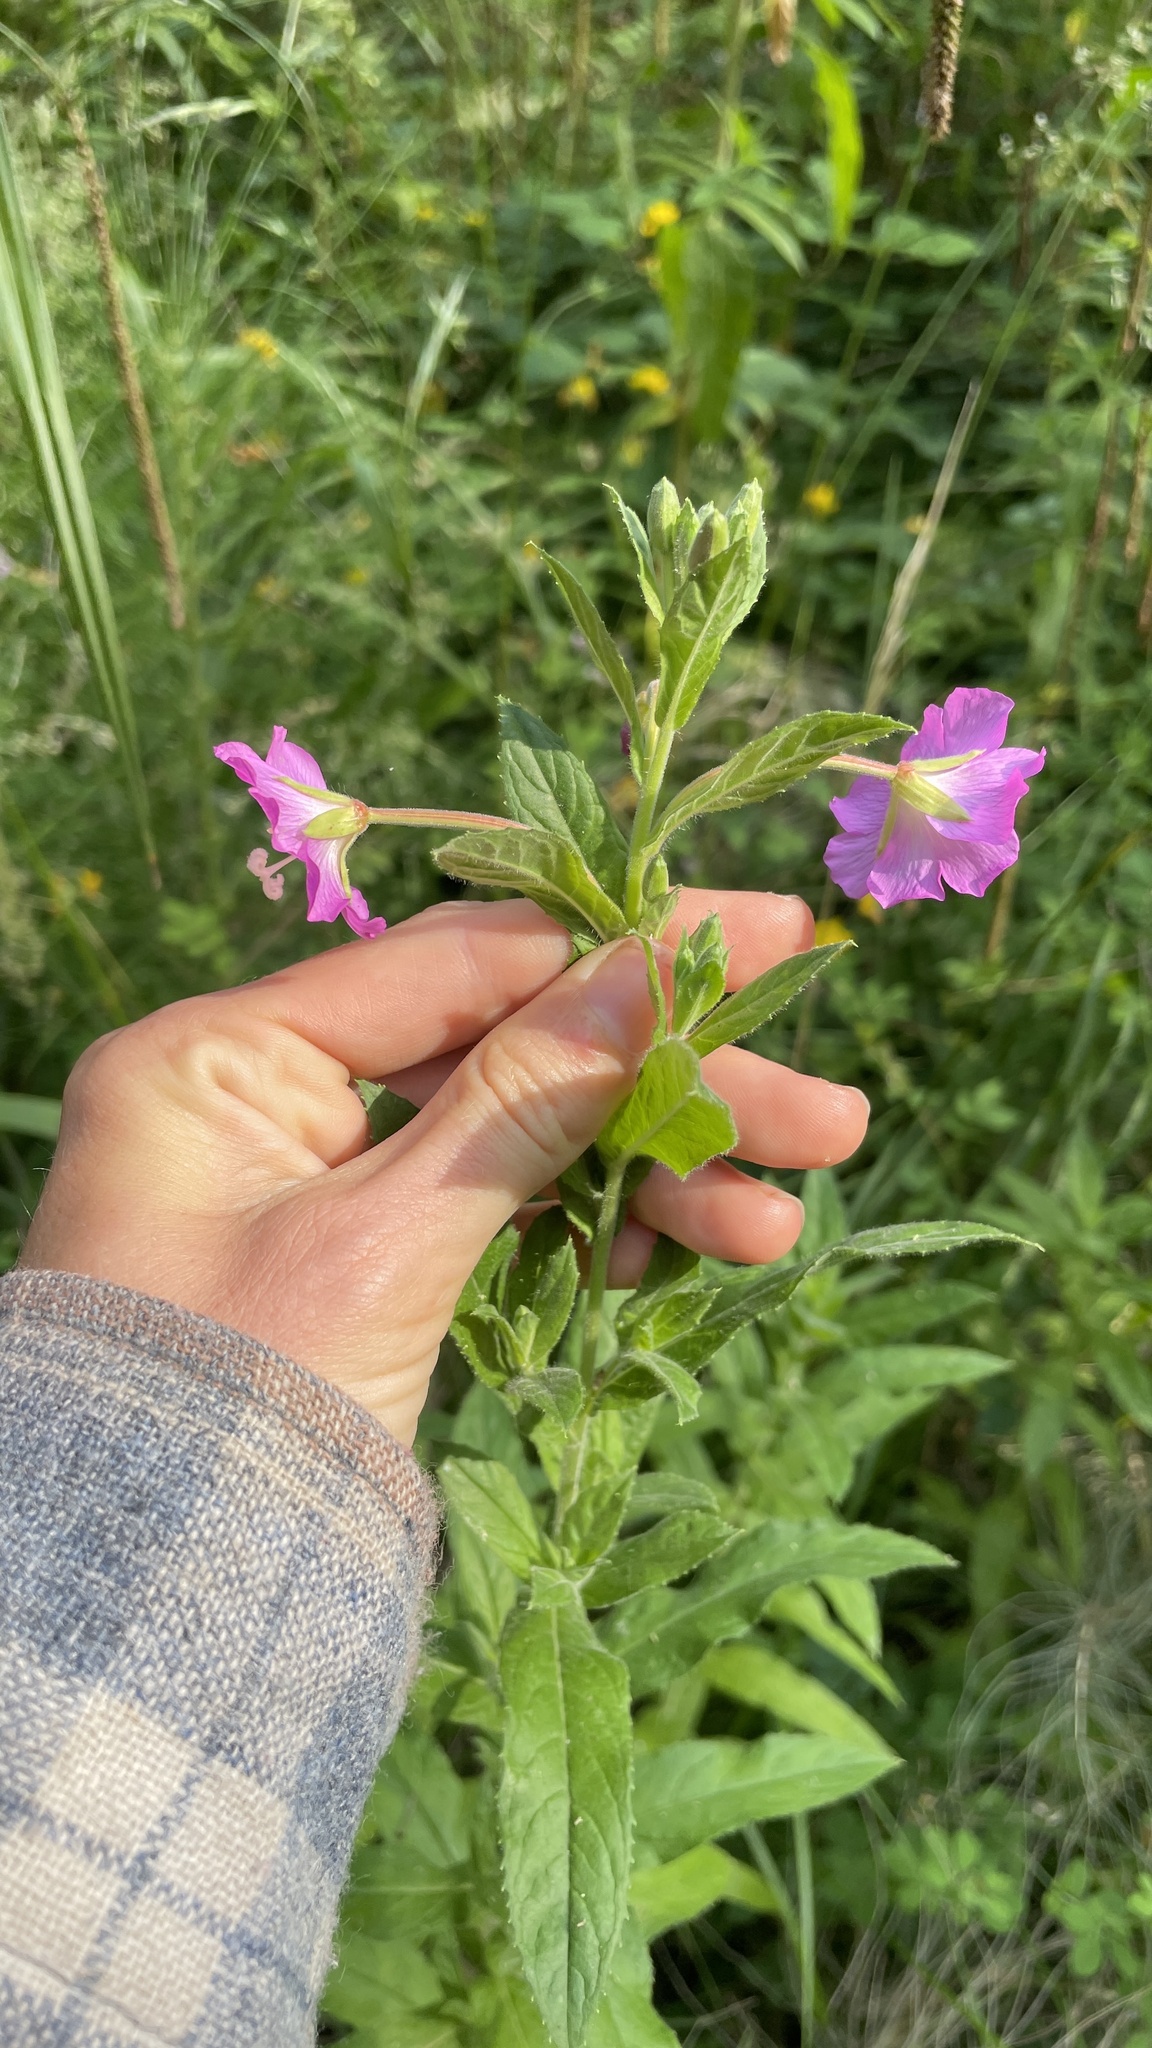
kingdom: Plantae
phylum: Tracheophyta
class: Magnoliopsida
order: Myrtales
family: Onagraceae
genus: Epilobium
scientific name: Epilobium hirsutum
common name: Great willowherb
